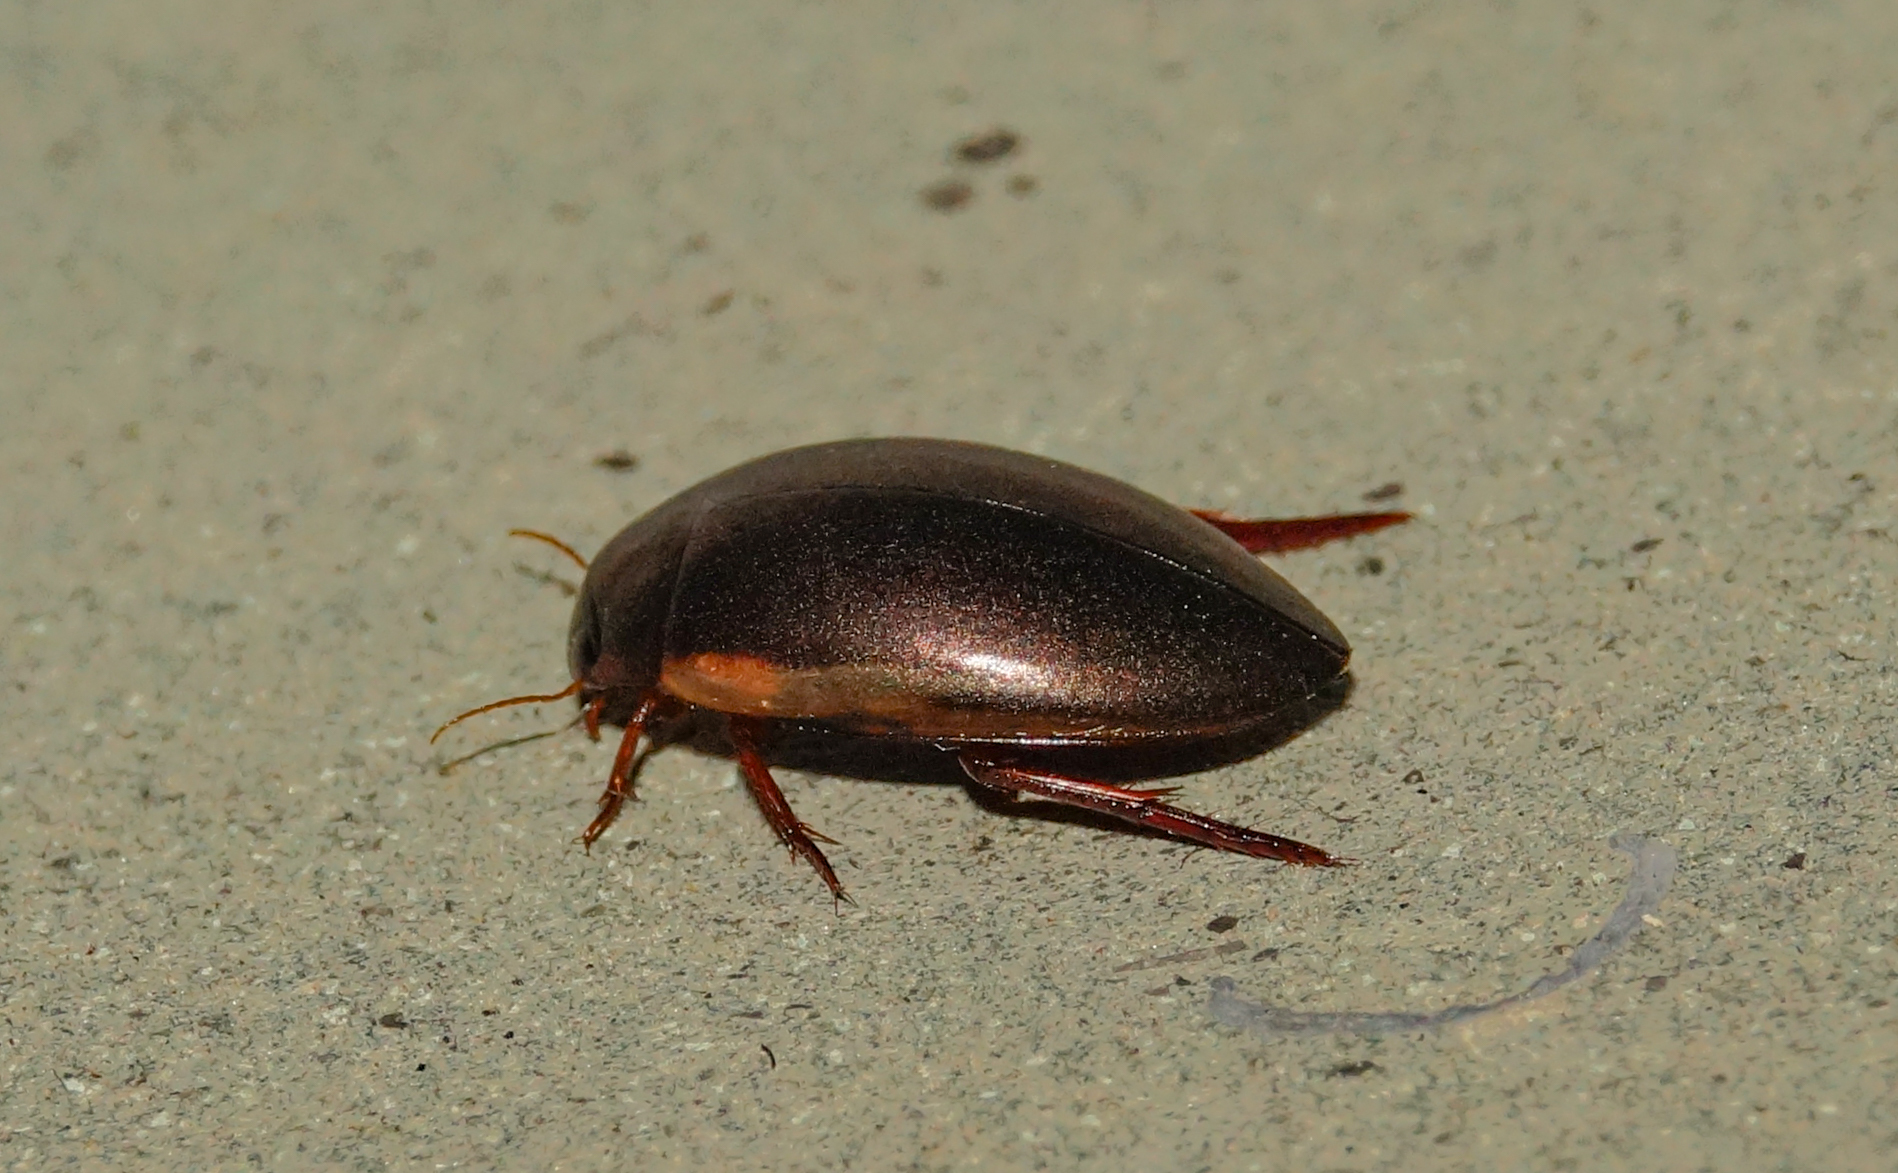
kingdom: Animalia
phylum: Arthropoda
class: Insecta
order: Coleoptera
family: Dytiscidae
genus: Ilybius
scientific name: Ilybius fuliginosus
